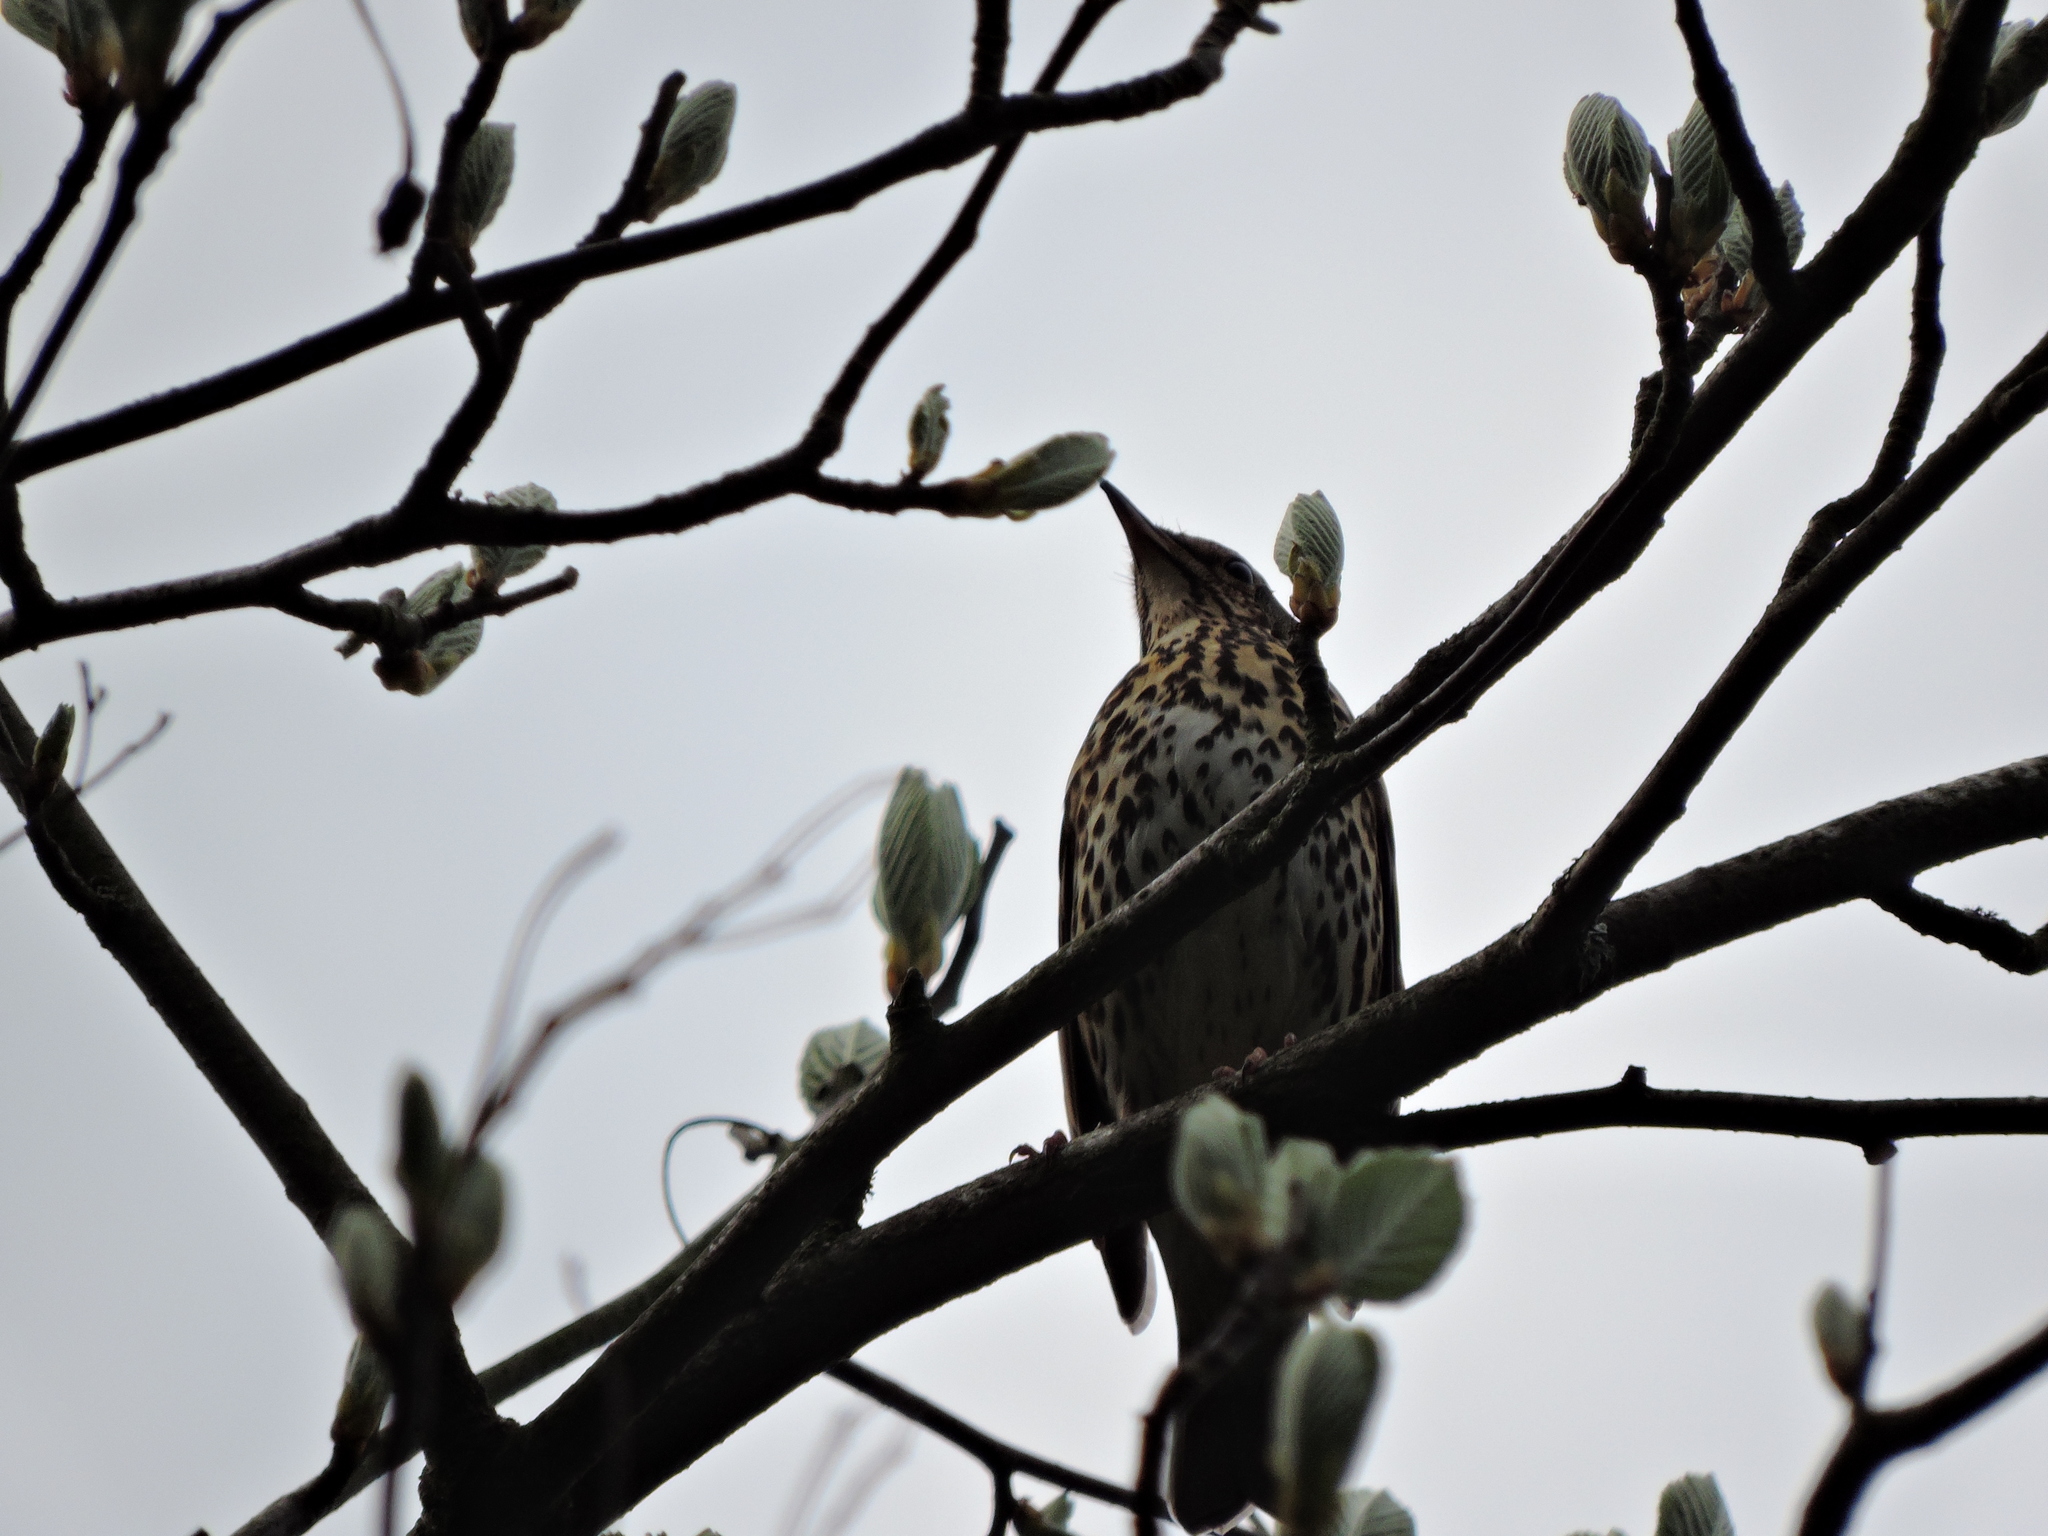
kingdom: Animalia
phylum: Chordata
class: Aves
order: Passeriformes
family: Turdidae
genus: Turdus
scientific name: Turdus philomelos
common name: Song thrush
